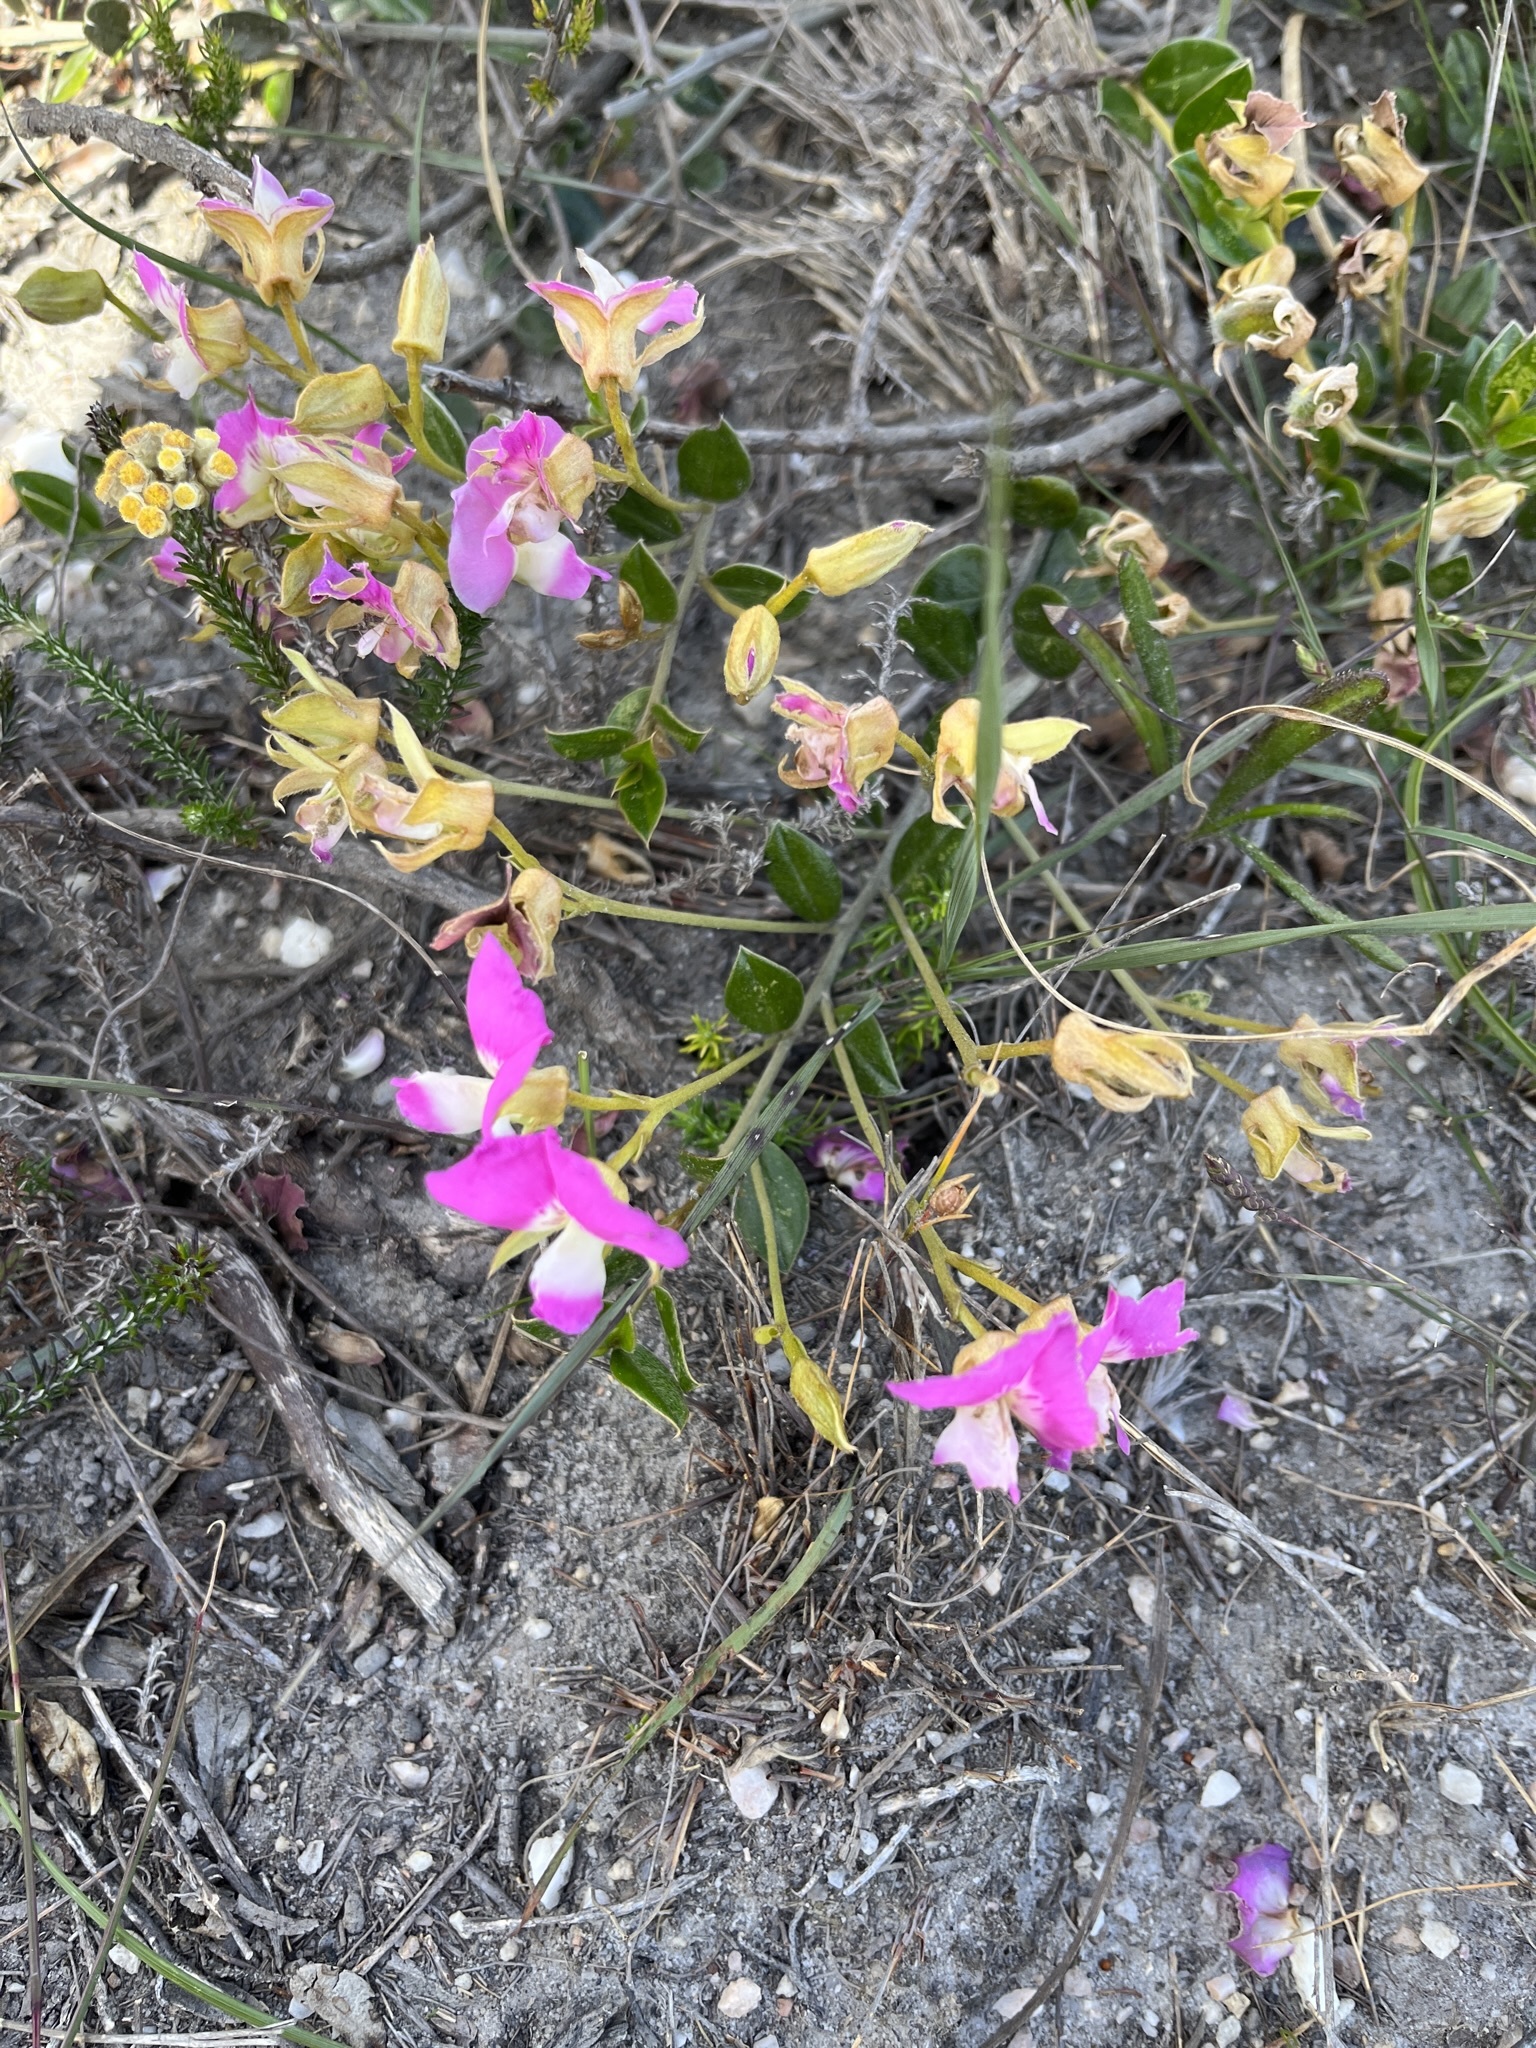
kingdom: Plantae
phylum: Tracheophyta
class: Magnoliopsida
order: Fabales
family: Fabaceae
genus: Podalyria
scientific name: Podalyria biflora
